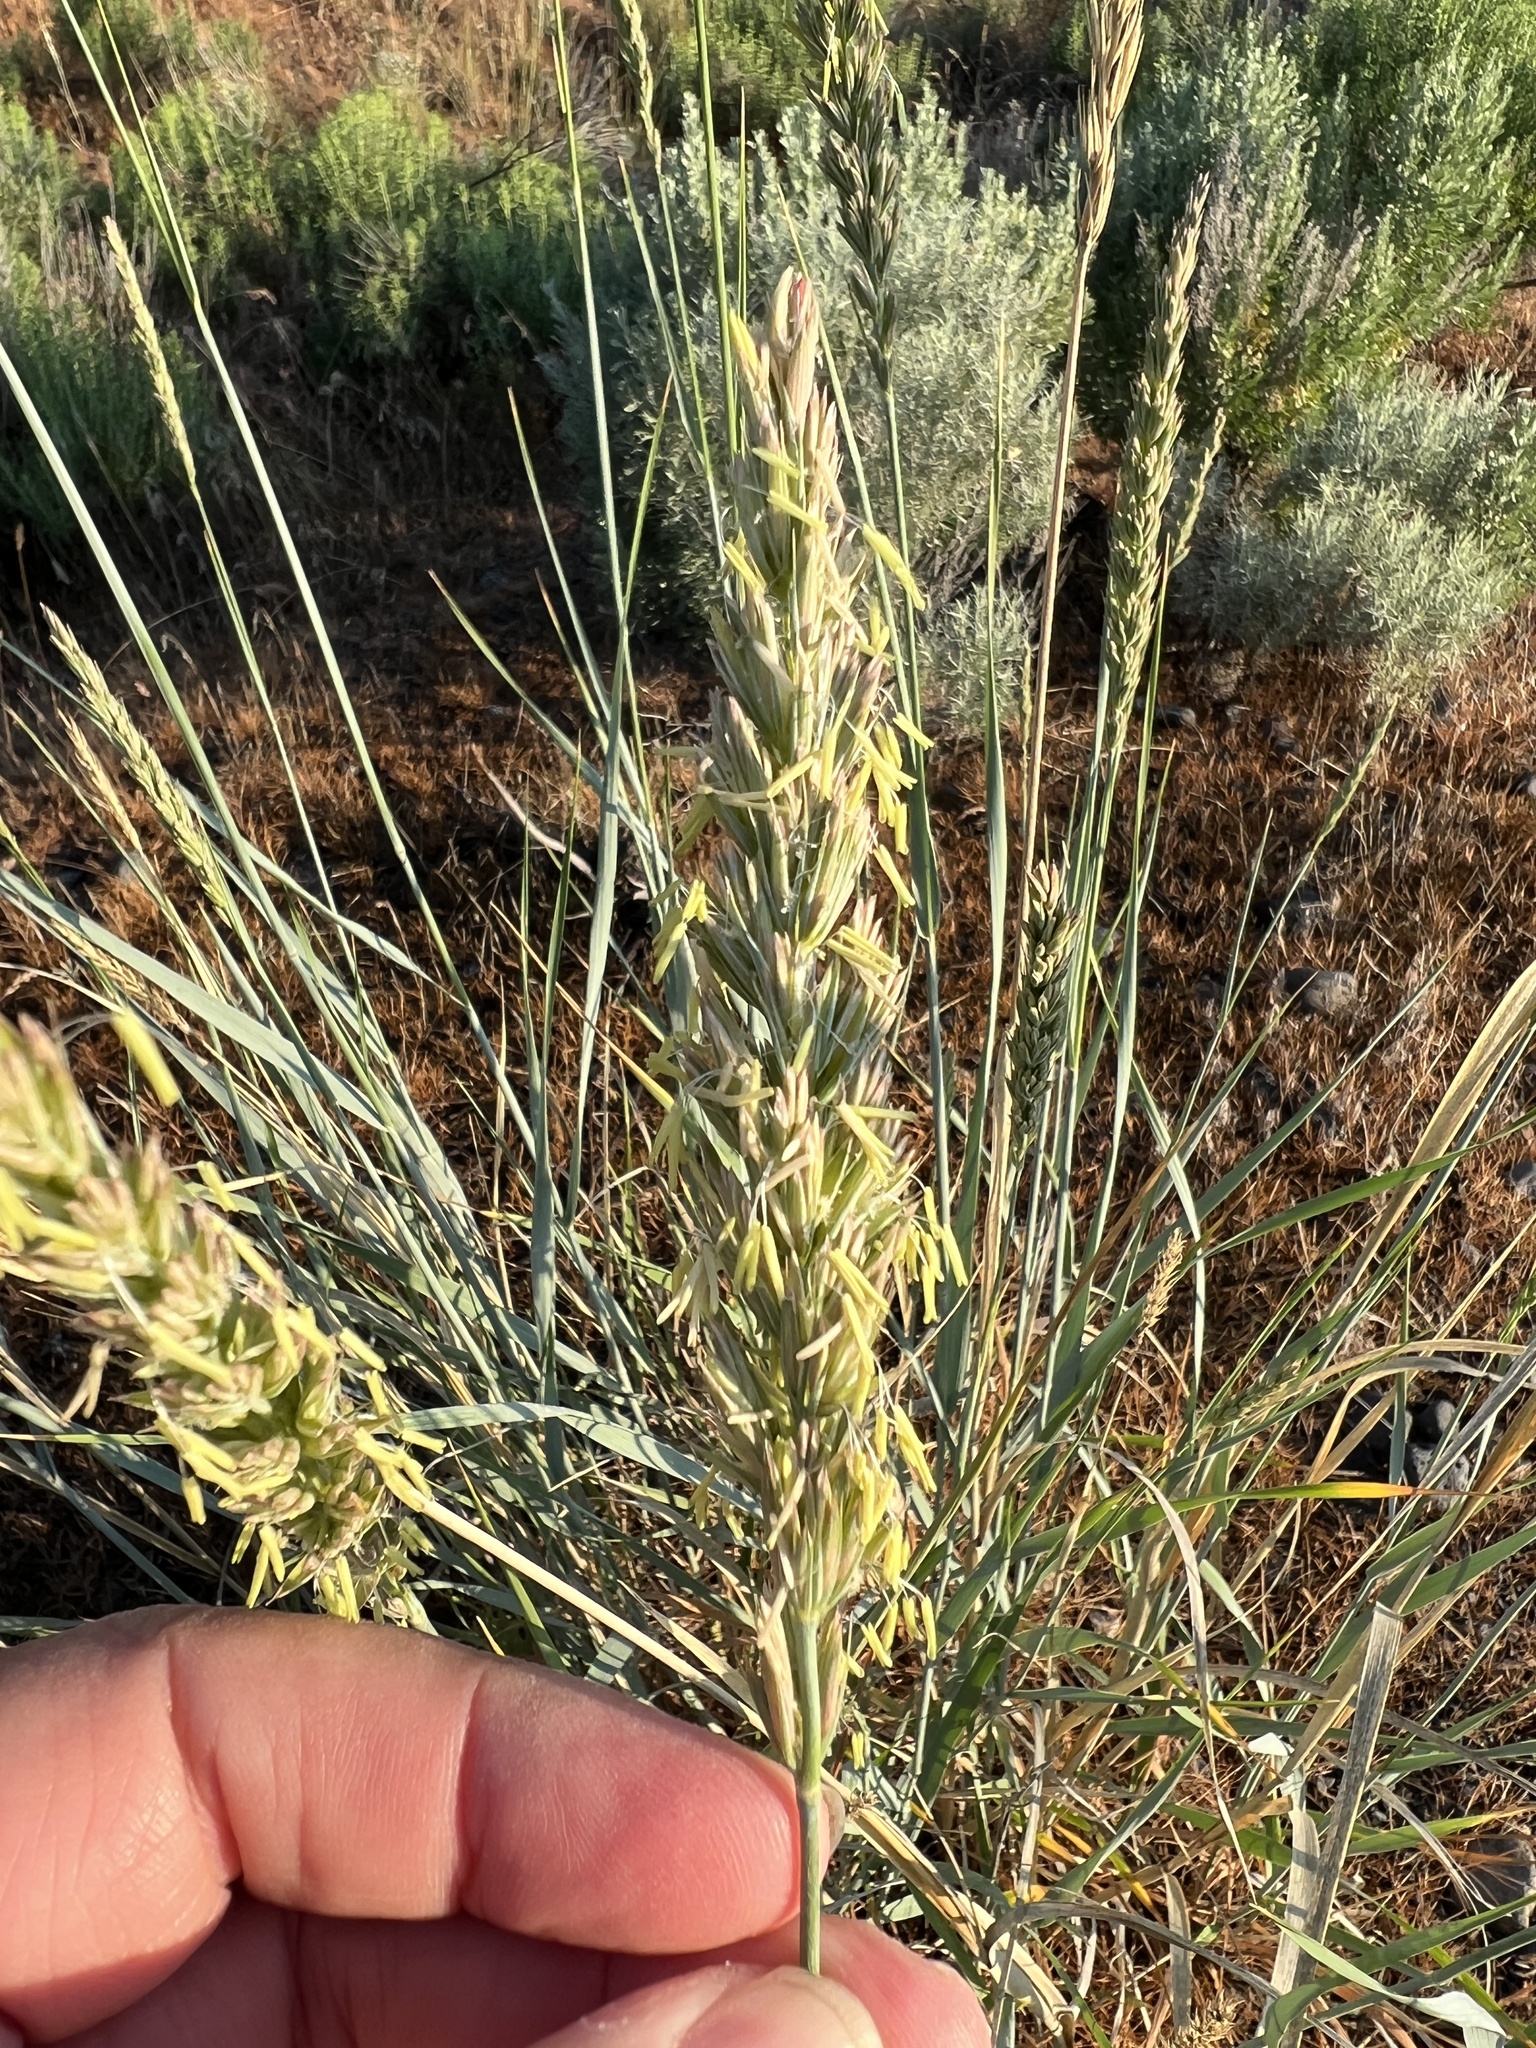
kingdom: Plantae
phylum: Tracheophyta
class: Liliopsida
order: Poales
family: Poaceae
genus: Leymus
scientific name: Leymus cinereus
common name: Basin wild rye
